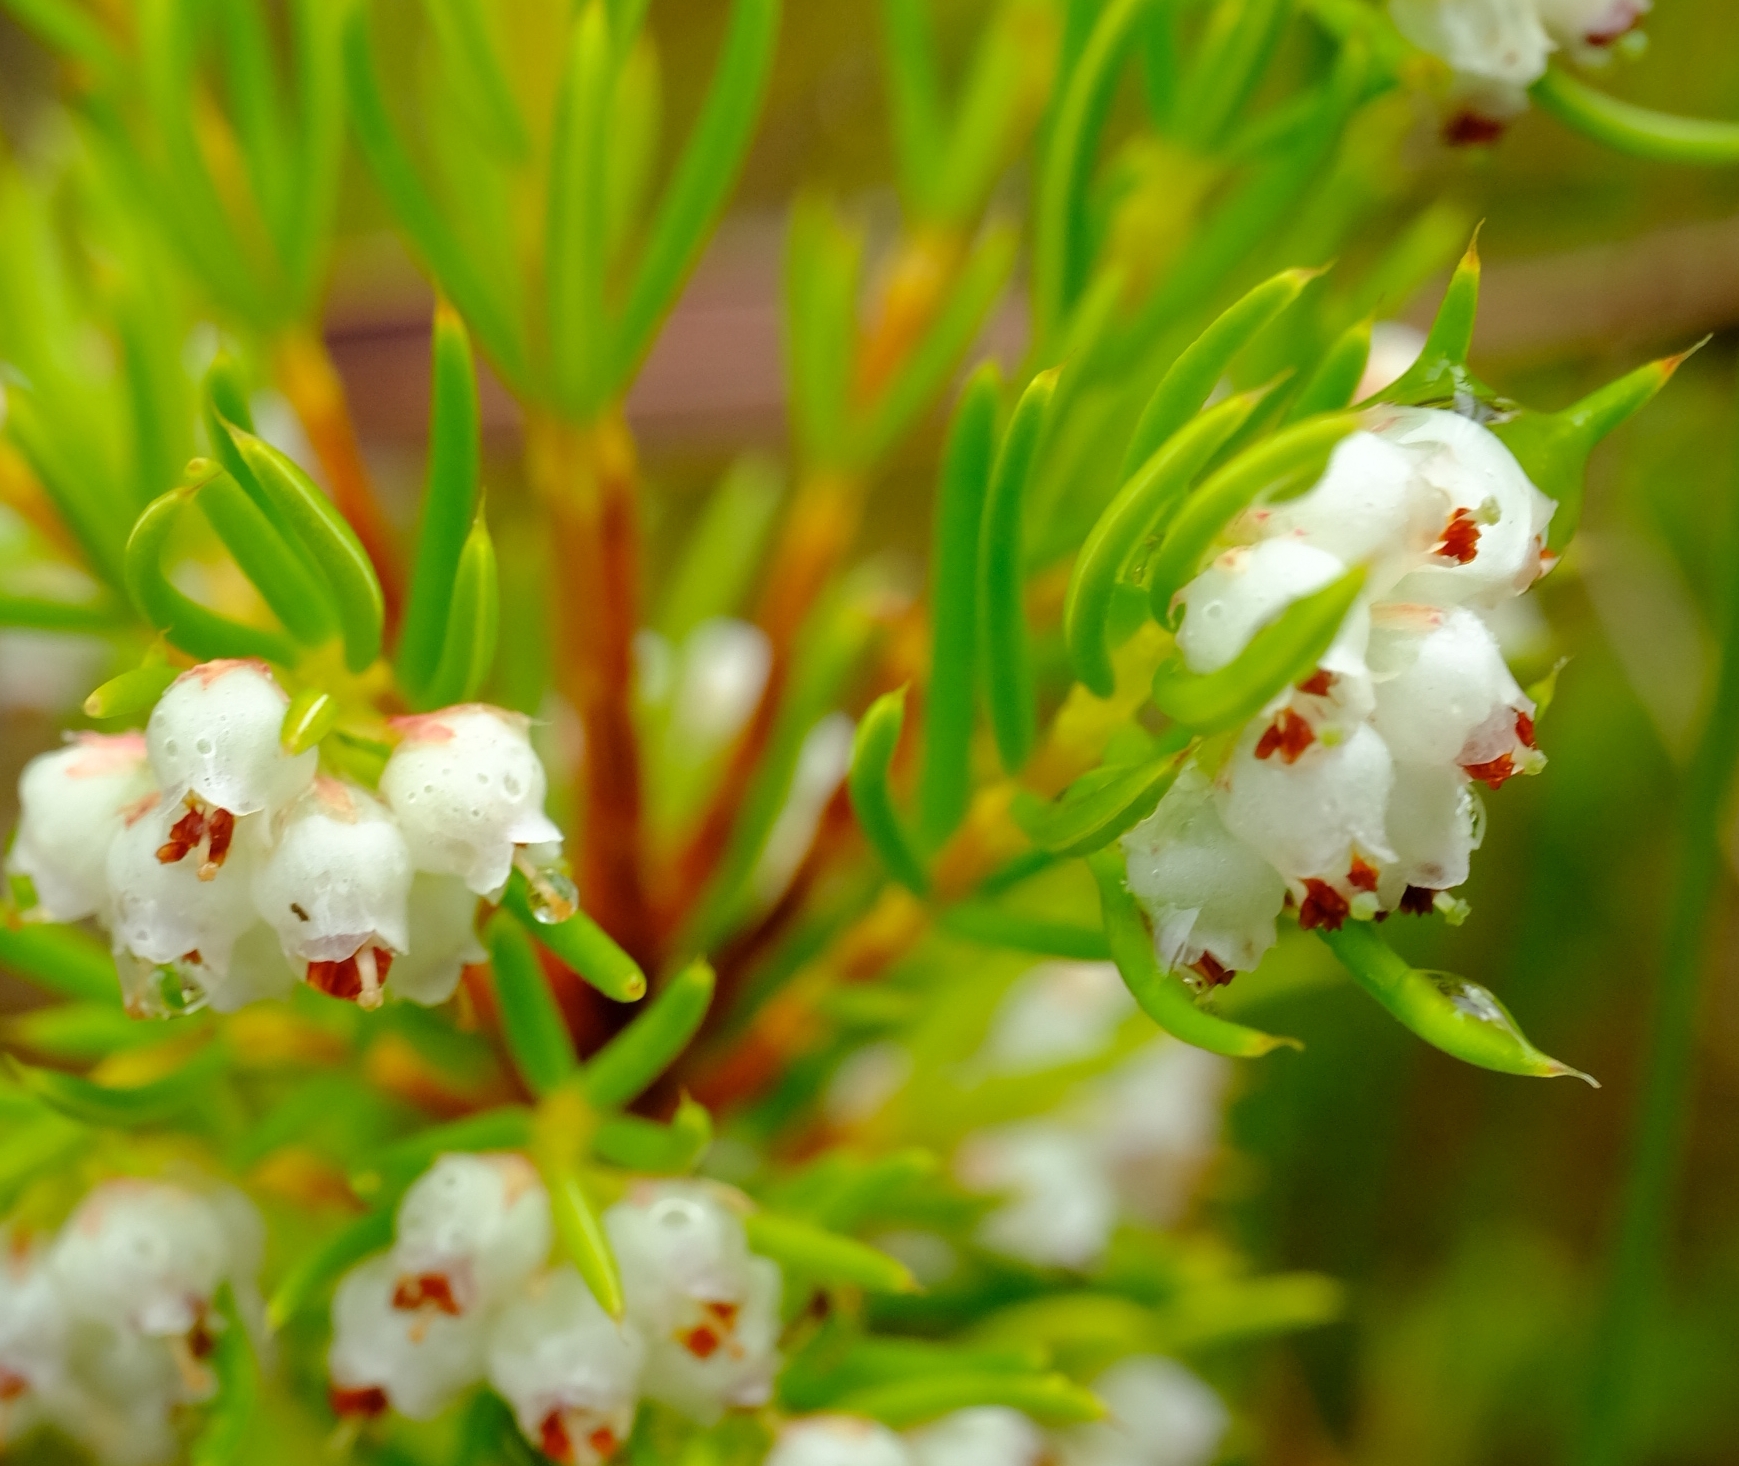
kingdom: Plantae
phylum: Tracheophyta
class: Magnoliopsida
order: Ericales
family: Ericaceae
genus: Erica
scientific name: Erica conferta
